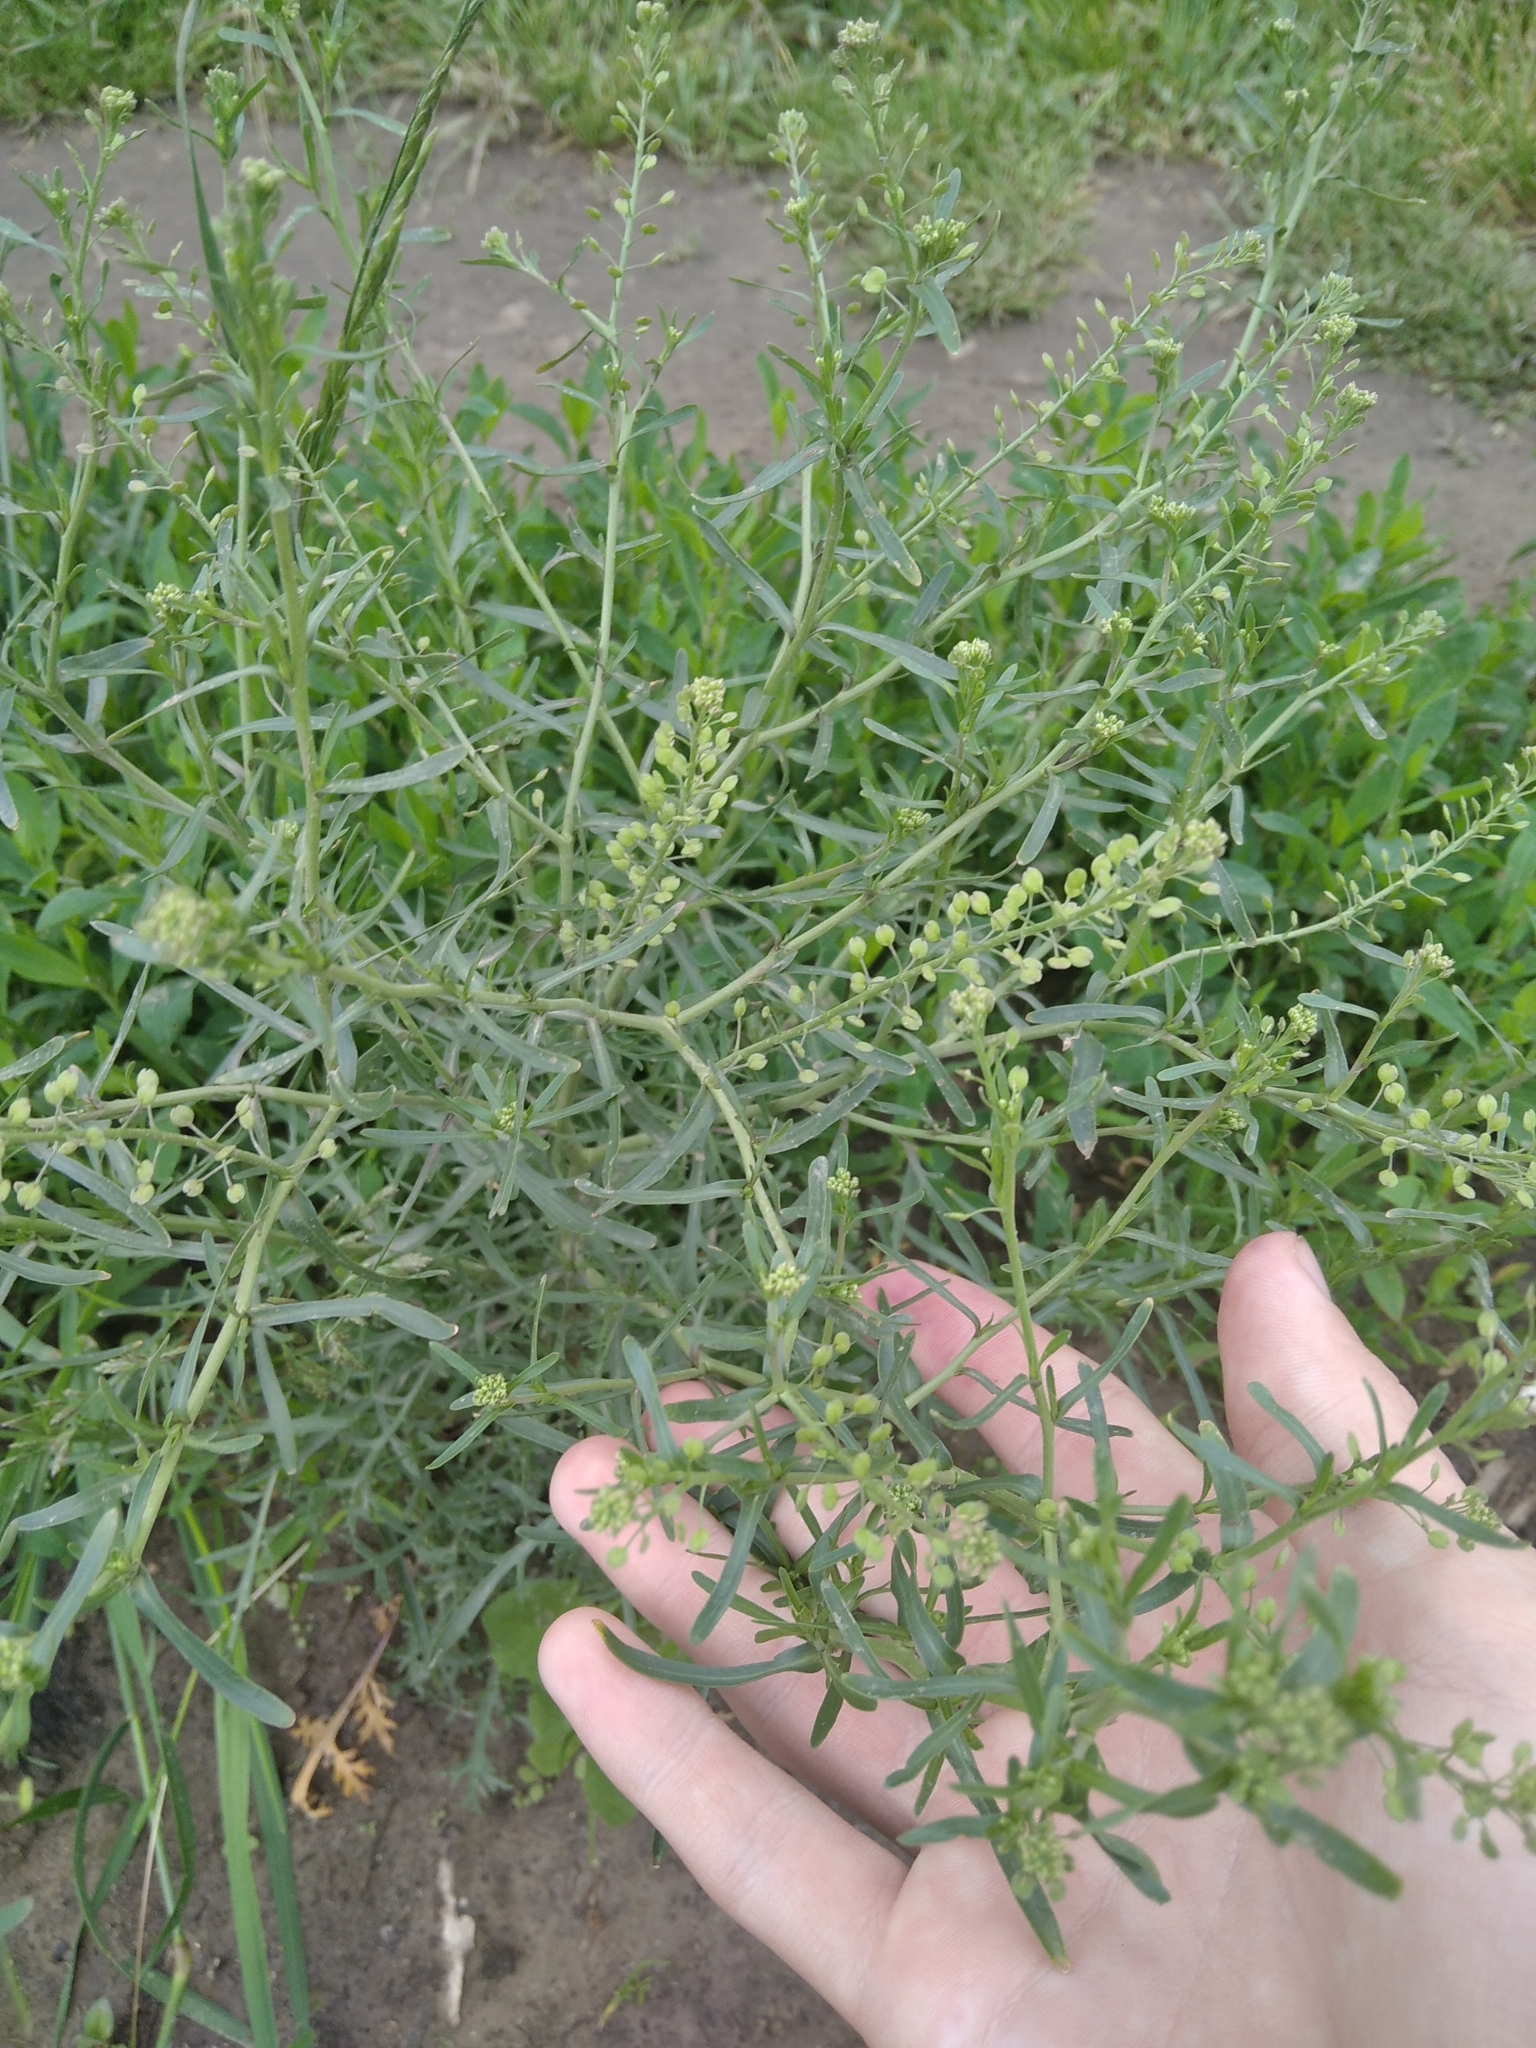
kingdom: Plantae
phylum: Tracheophyta
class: Magnoliopsida
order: Brassicales
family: Brassicaceae
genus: Lepidium
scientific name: Lepidium ruderale
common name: Narrow-leaved pepperwort
